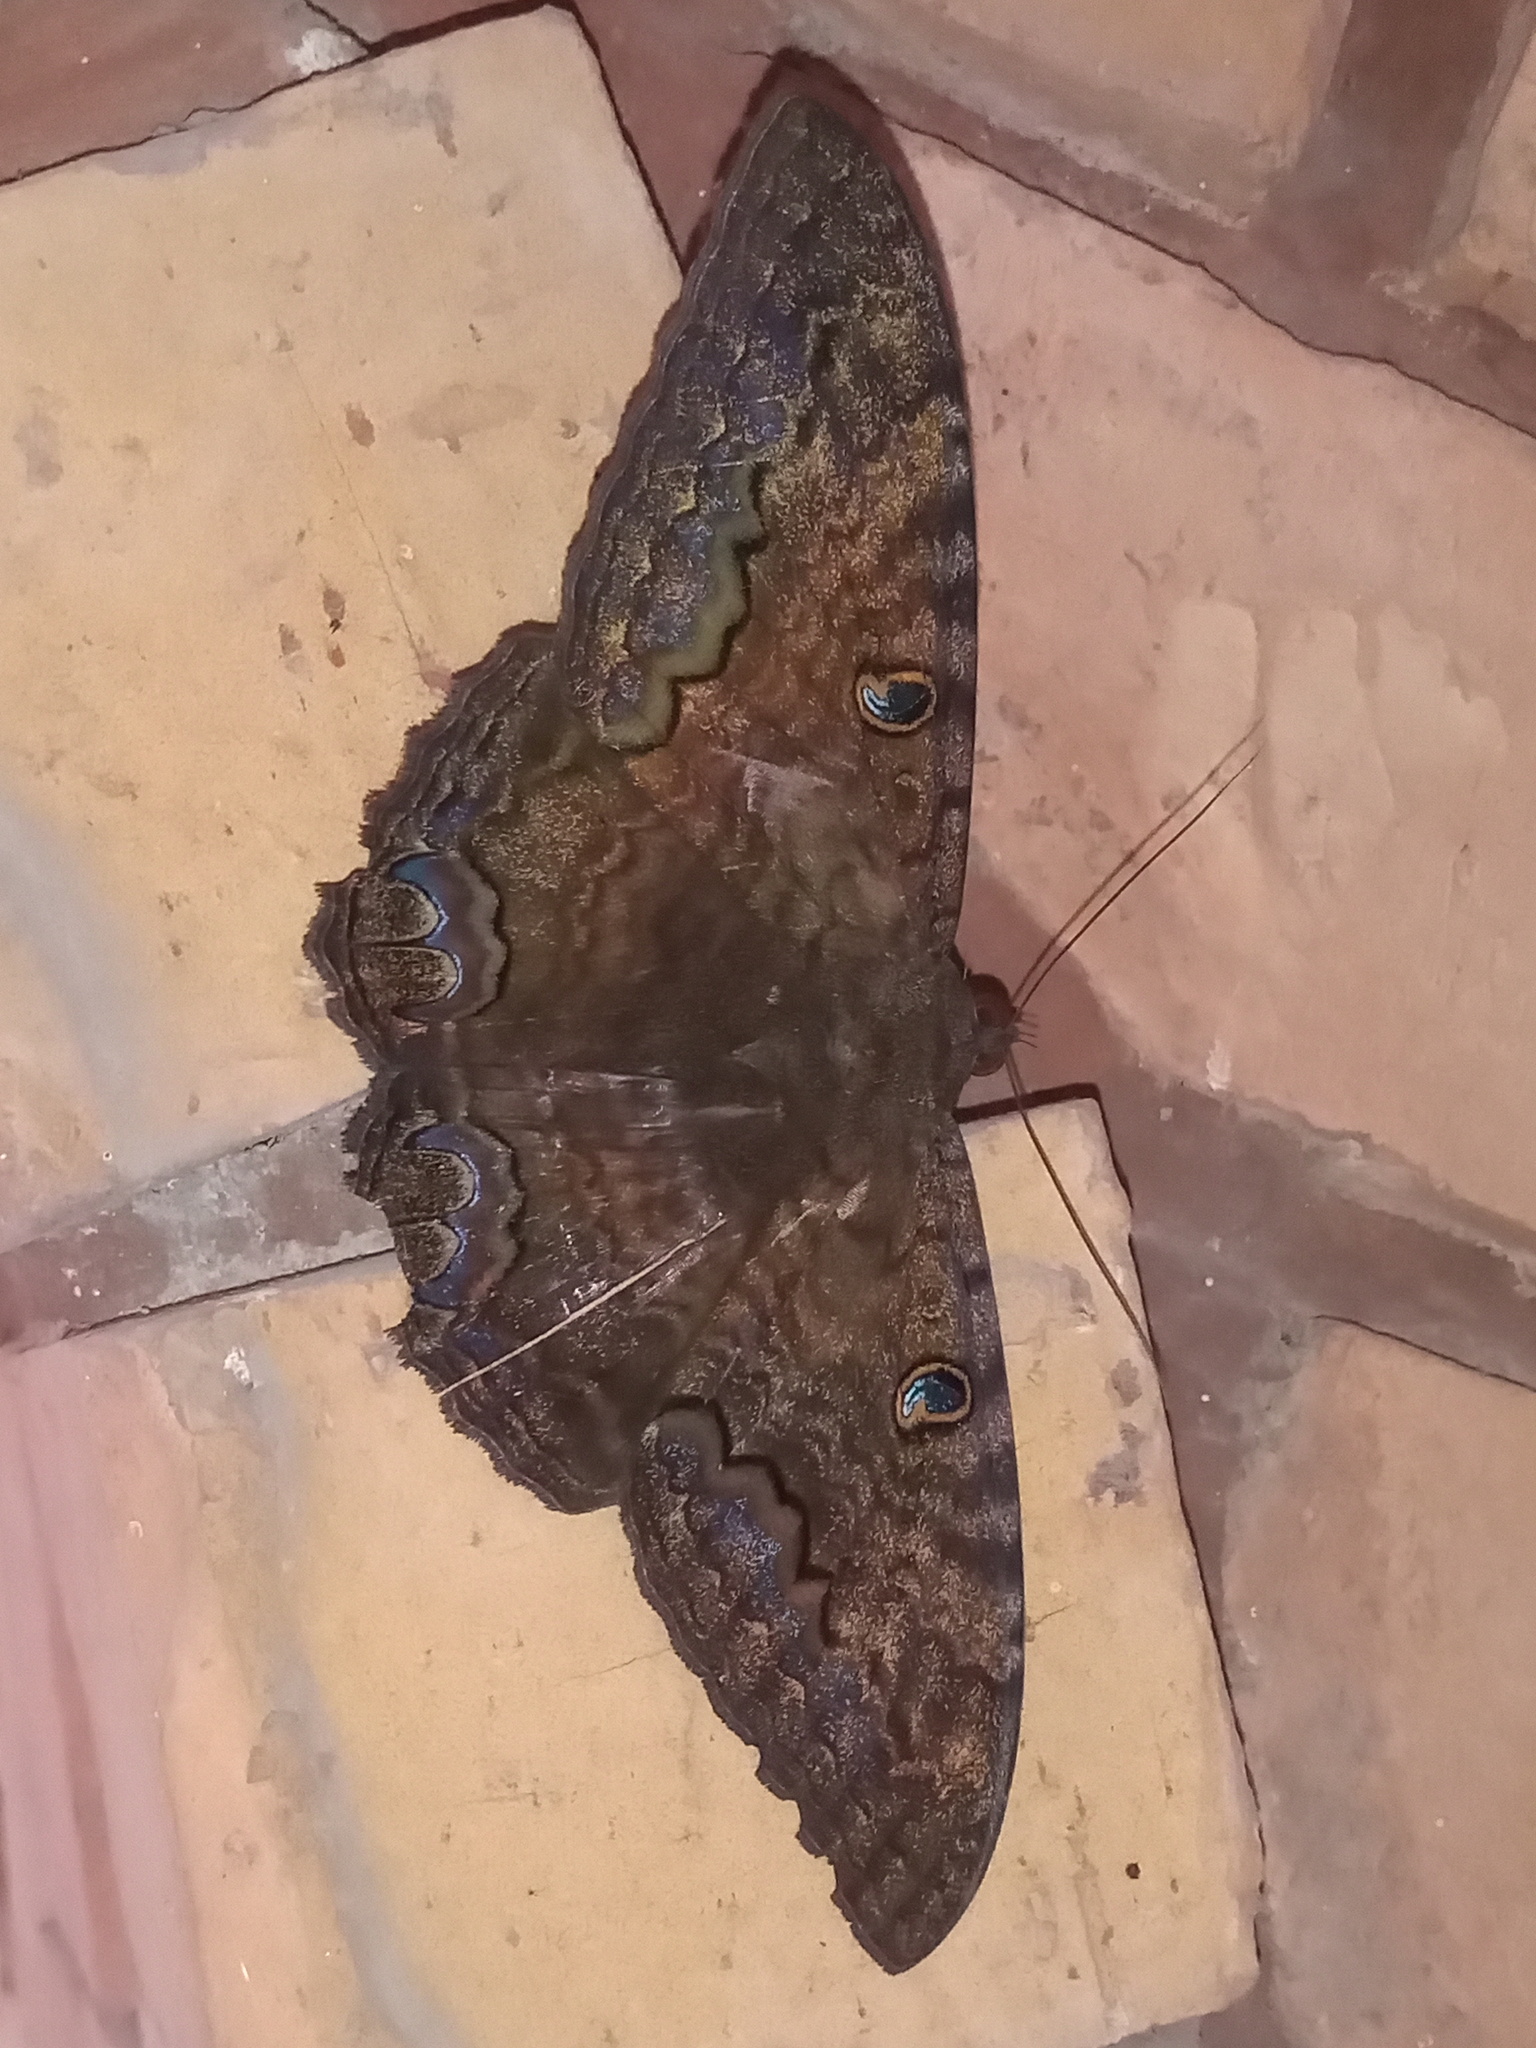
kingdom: Animalia
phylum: Arthropoda
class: Insecta
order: Lepidoptera
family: Erebidae
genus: Ascalapha
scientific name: Ascalapha odorata
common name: Black witch
